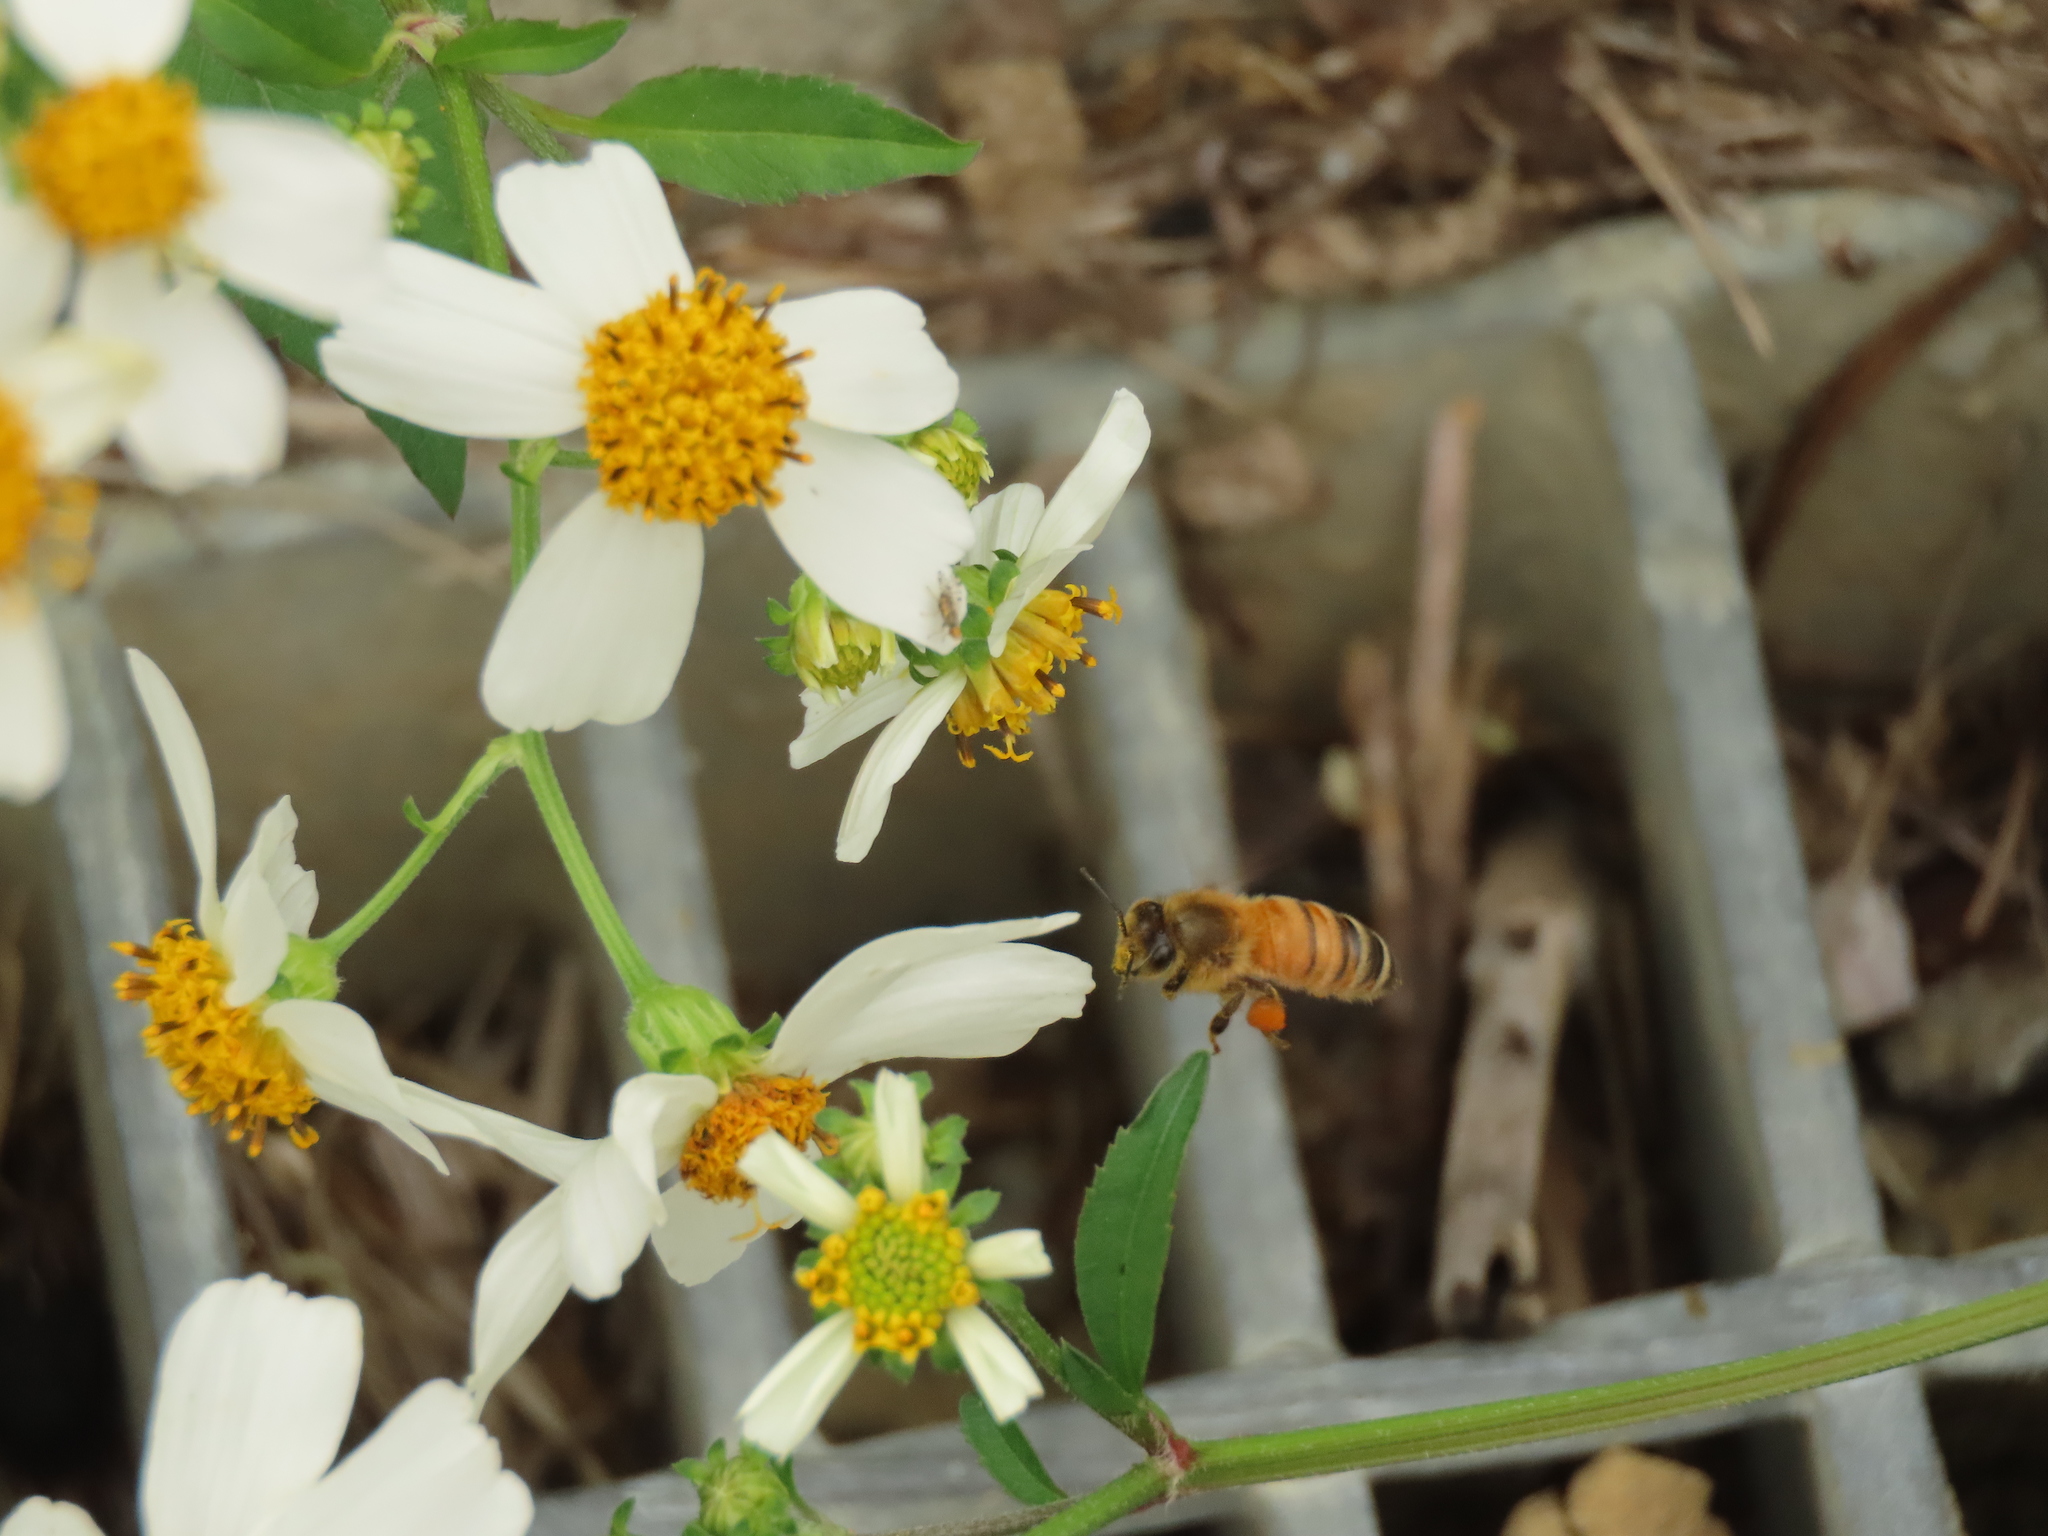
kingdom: Animalia
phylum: Arthropoda
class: Insecta
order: Hymenoptera
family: Apidae
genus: Apis
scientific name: Apis mellifera
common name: Honey bee
